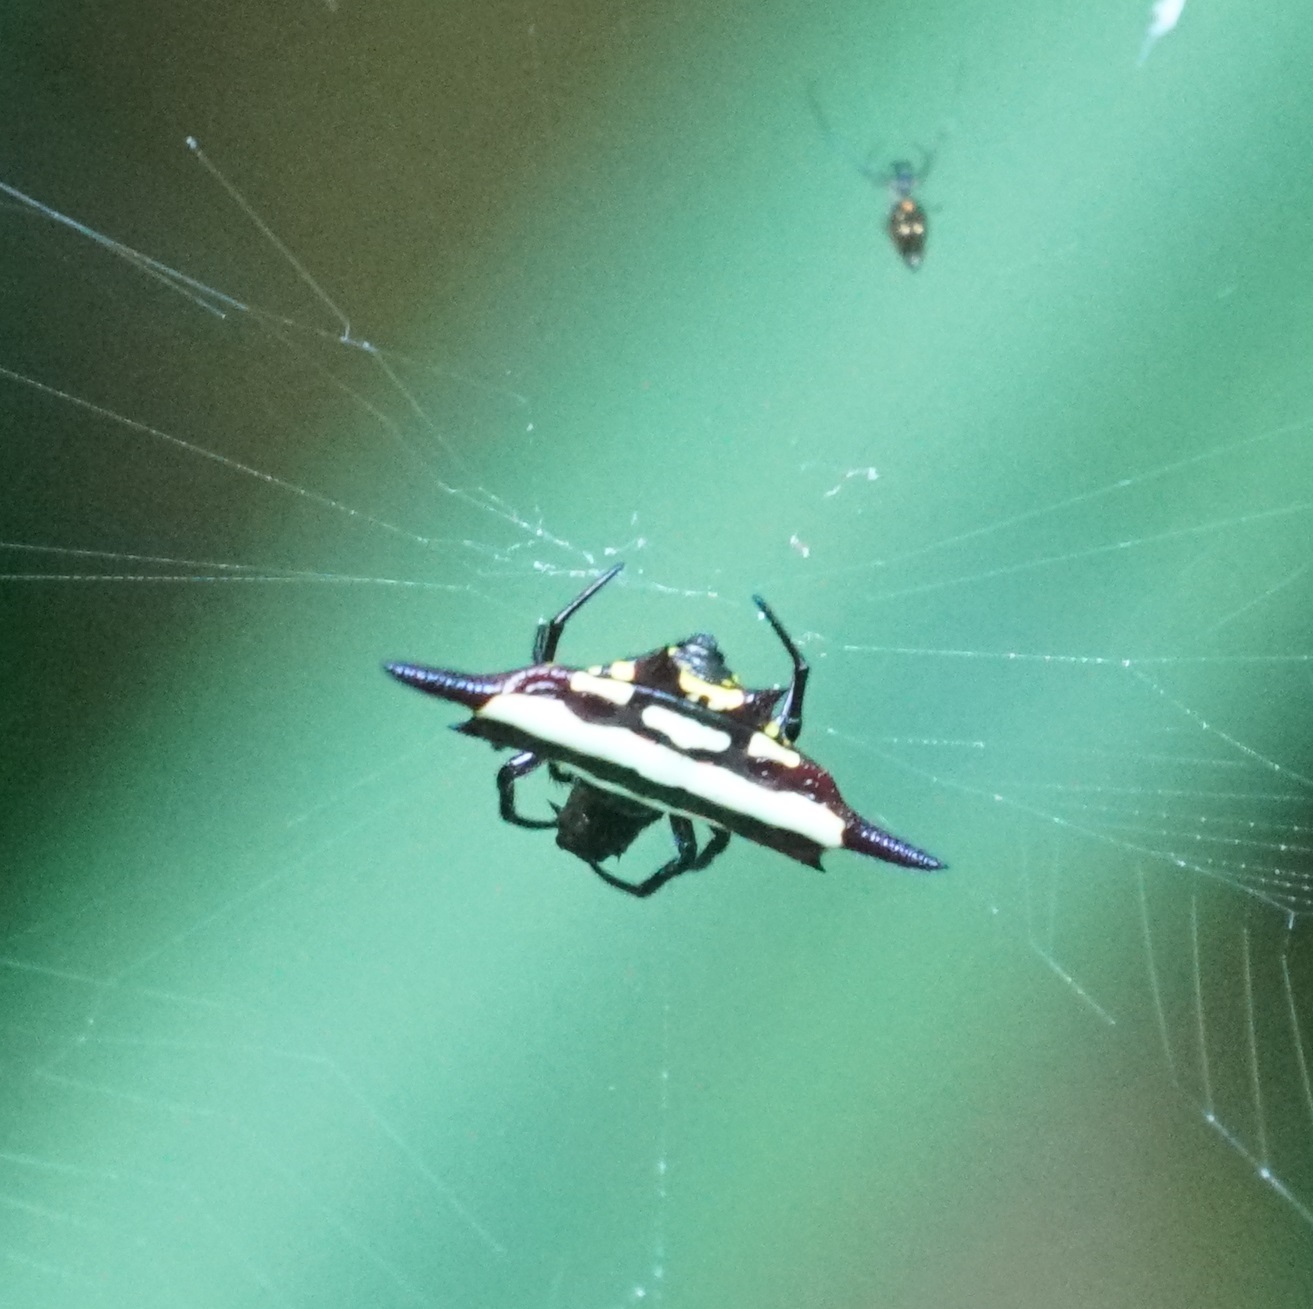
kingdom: Animalia
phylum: Arthropoda
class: Arachnida
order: Araneae
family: Araneidae
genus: Gasteracantha
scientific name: Gasteracantha fornicata
